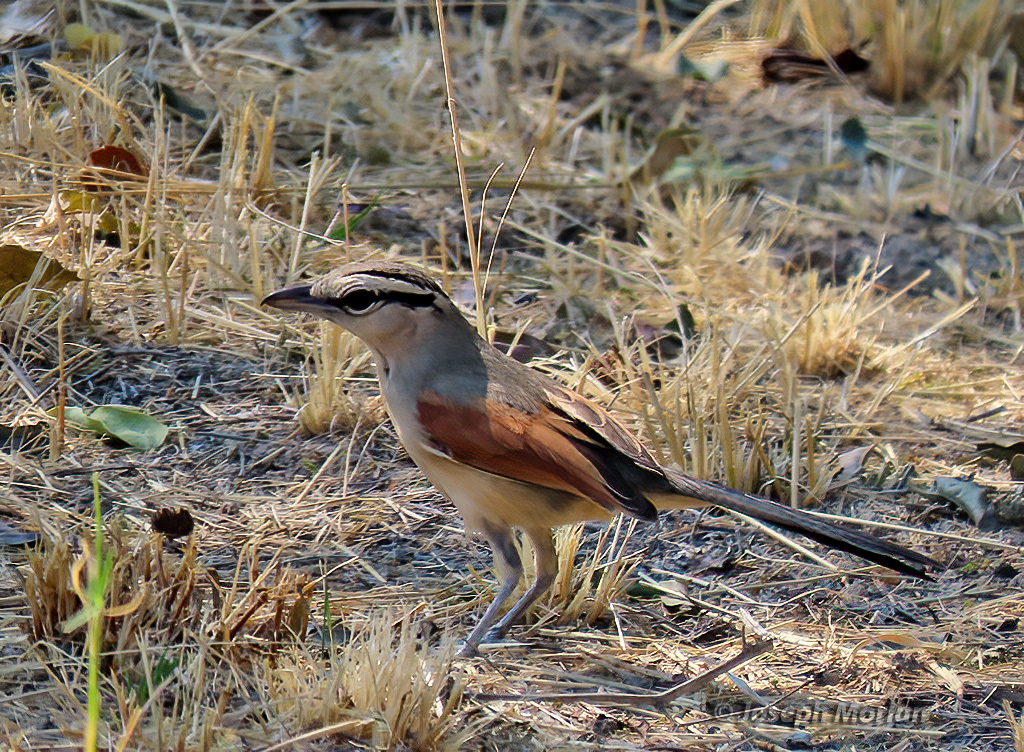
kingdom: Animalia
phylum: Chordata
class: Aves
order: Passeriformes
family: Malaconotidae
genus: Tchagra
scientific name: Tchagra australis
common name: Brown-crowned tchagra
